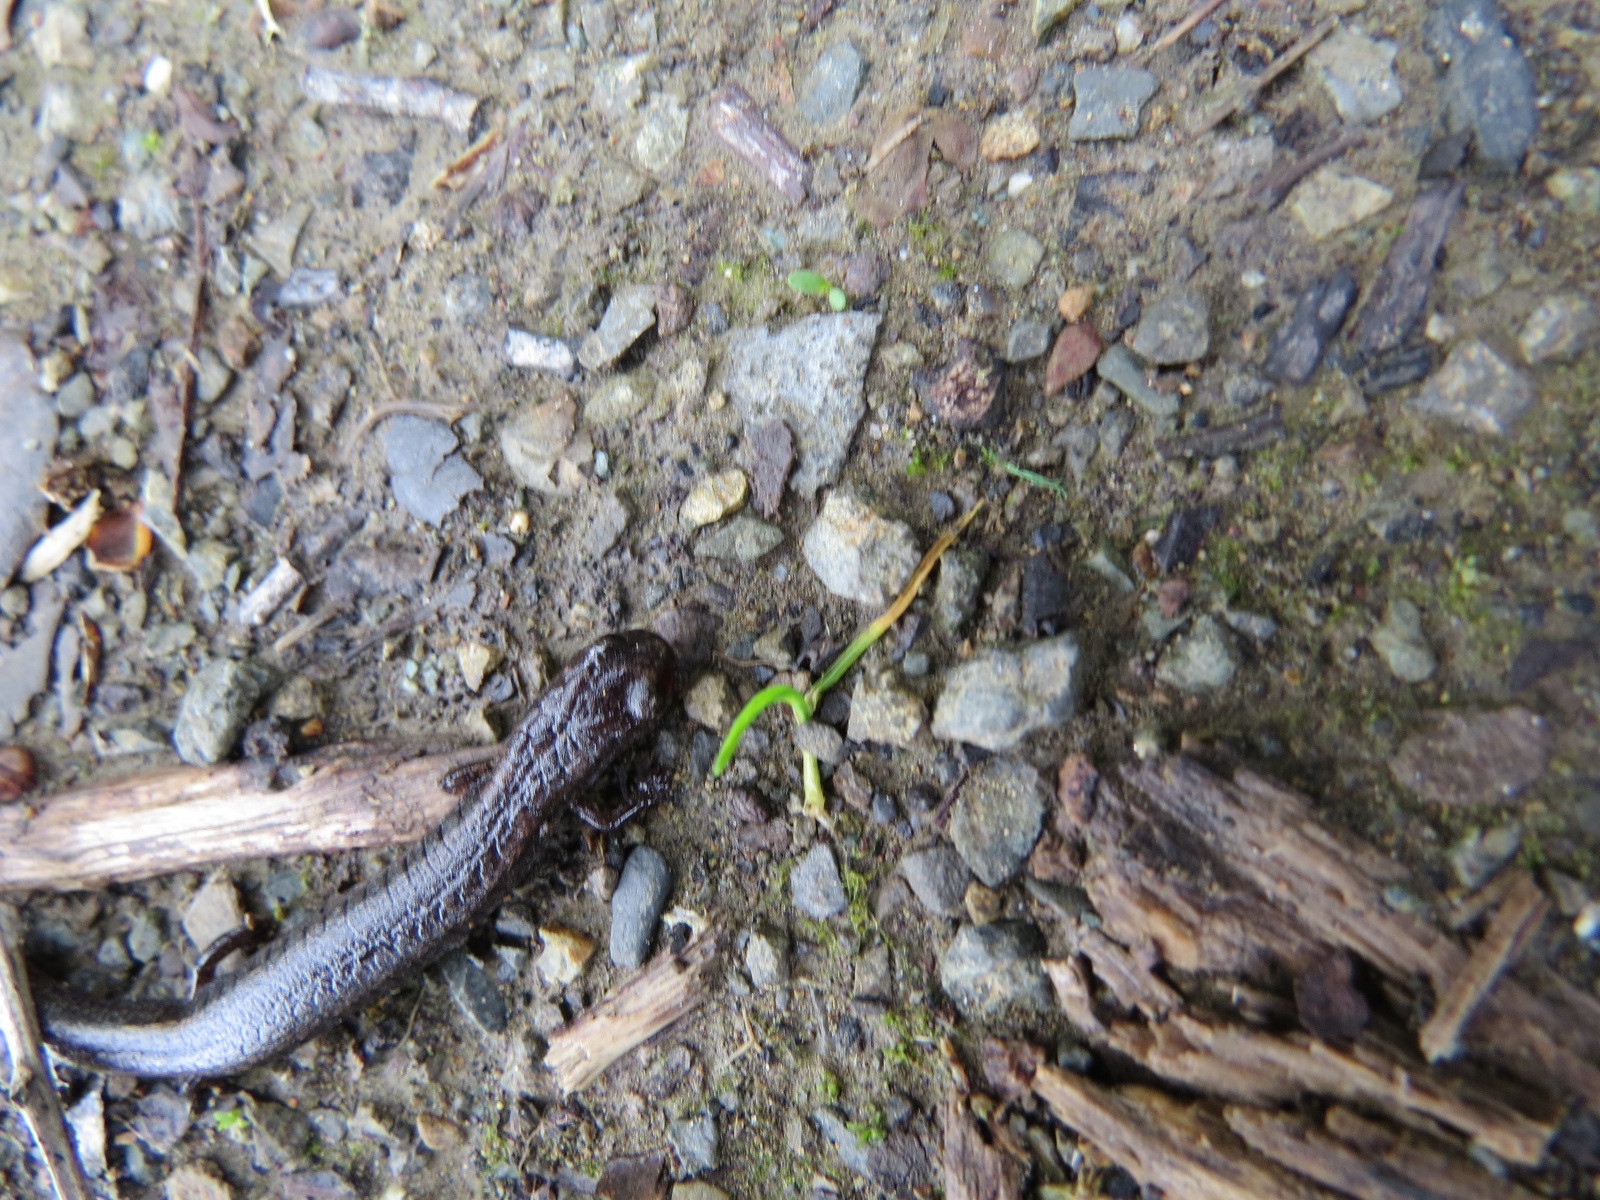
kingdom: Animalia
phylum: Chordata
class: Amphibia
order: Caudata
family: Plethodontidae
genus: Batrachoseps
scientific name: Batrachoseps attenuatus
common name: California slender salamander
